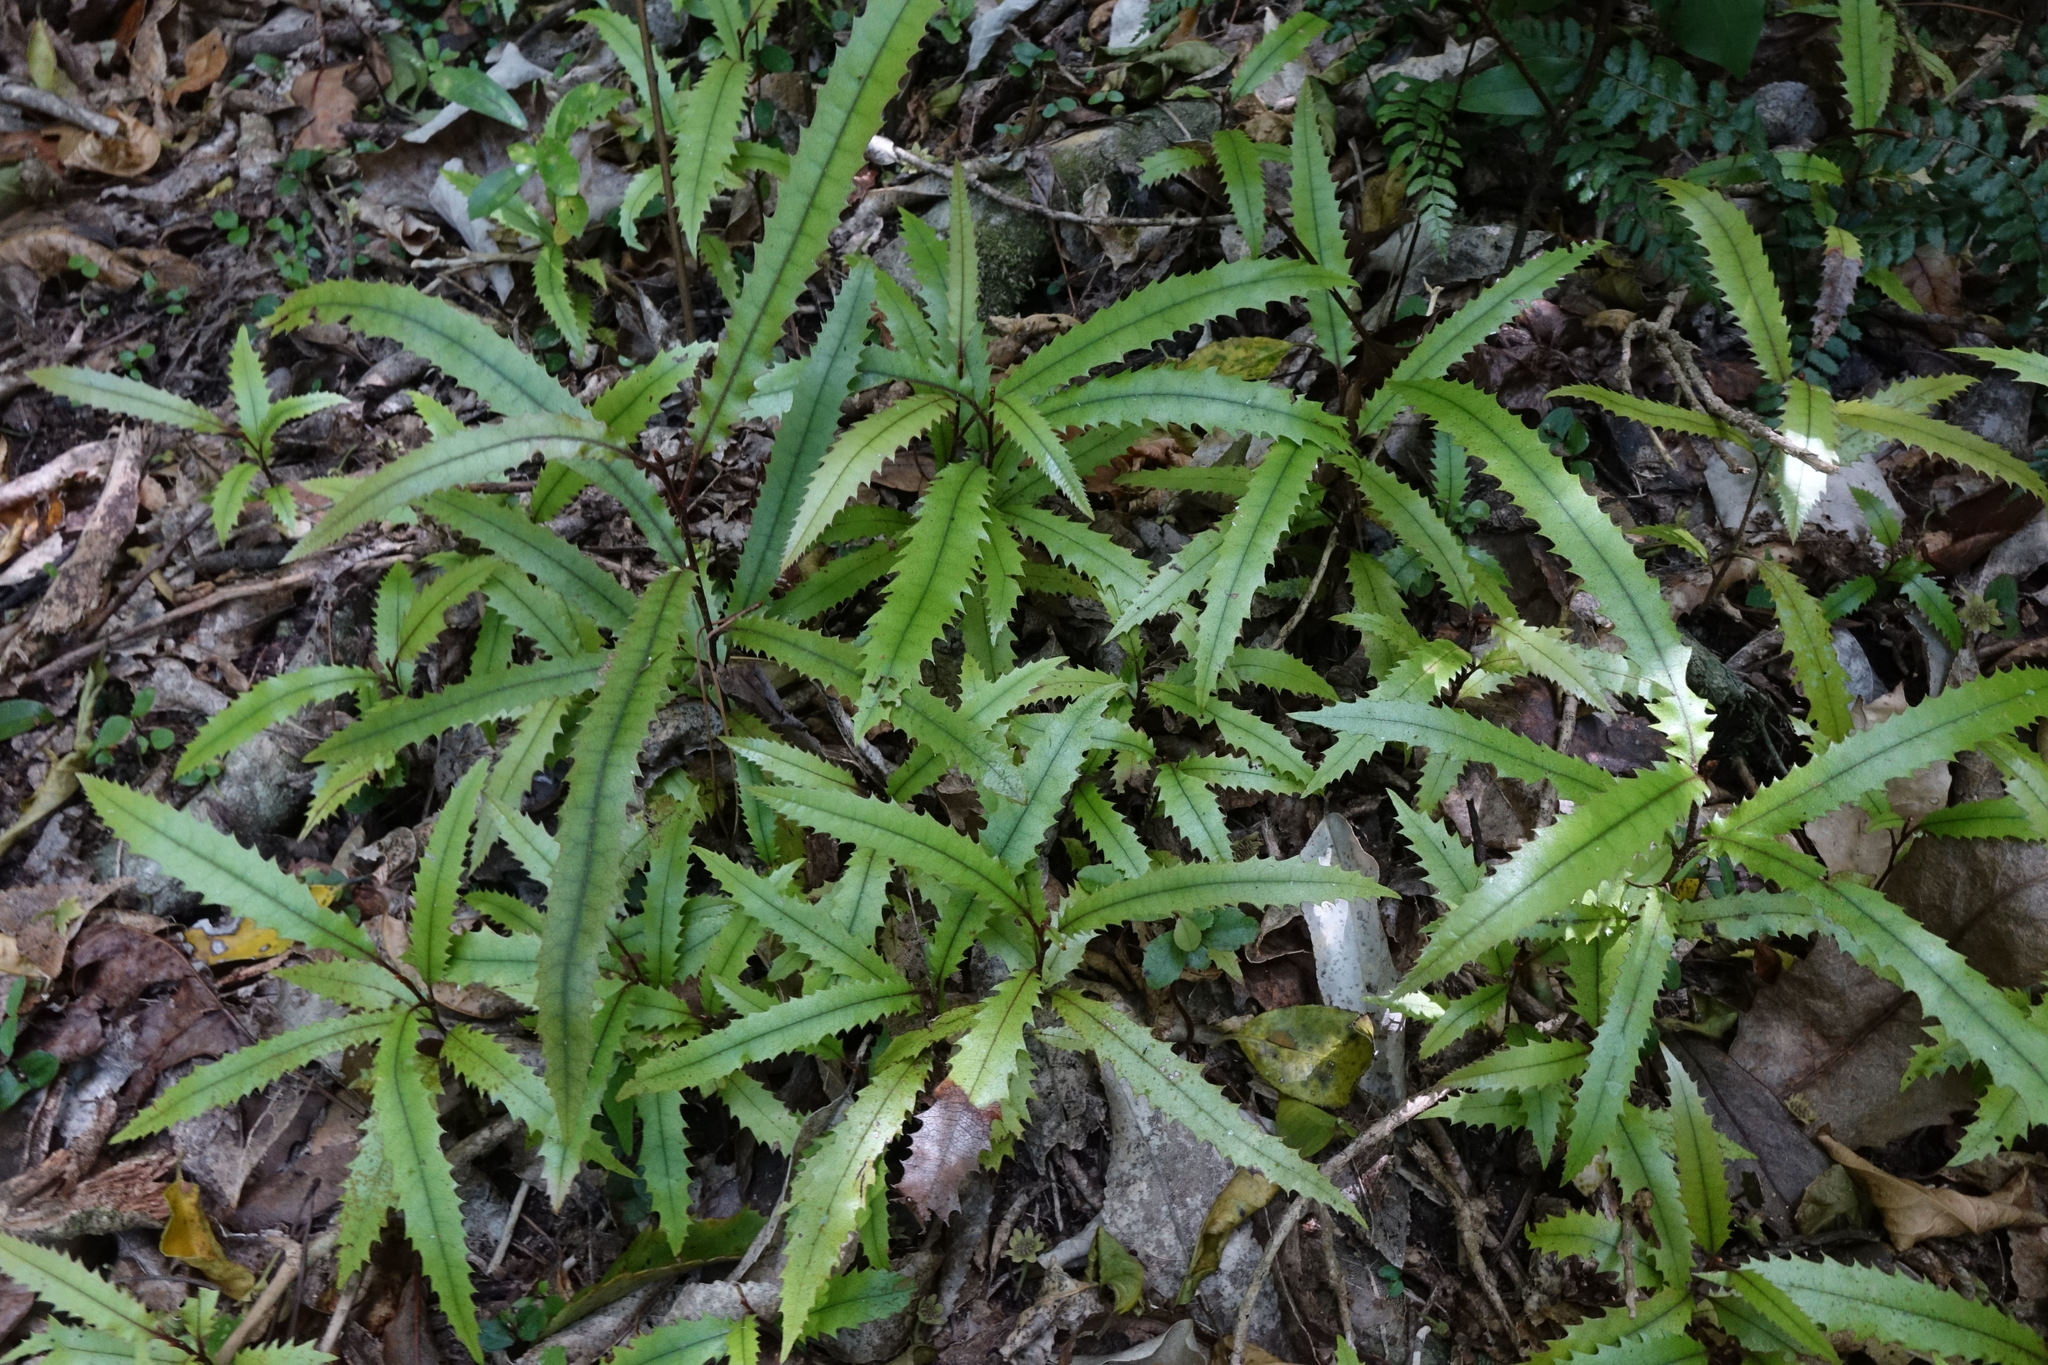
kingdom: Plantae
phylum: Tracheophyta
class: Magnoliopsida
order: Proteales
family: Proteaceae
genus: Knightia
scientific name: Knightia excelsa
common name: New zealand-honeysuckle
